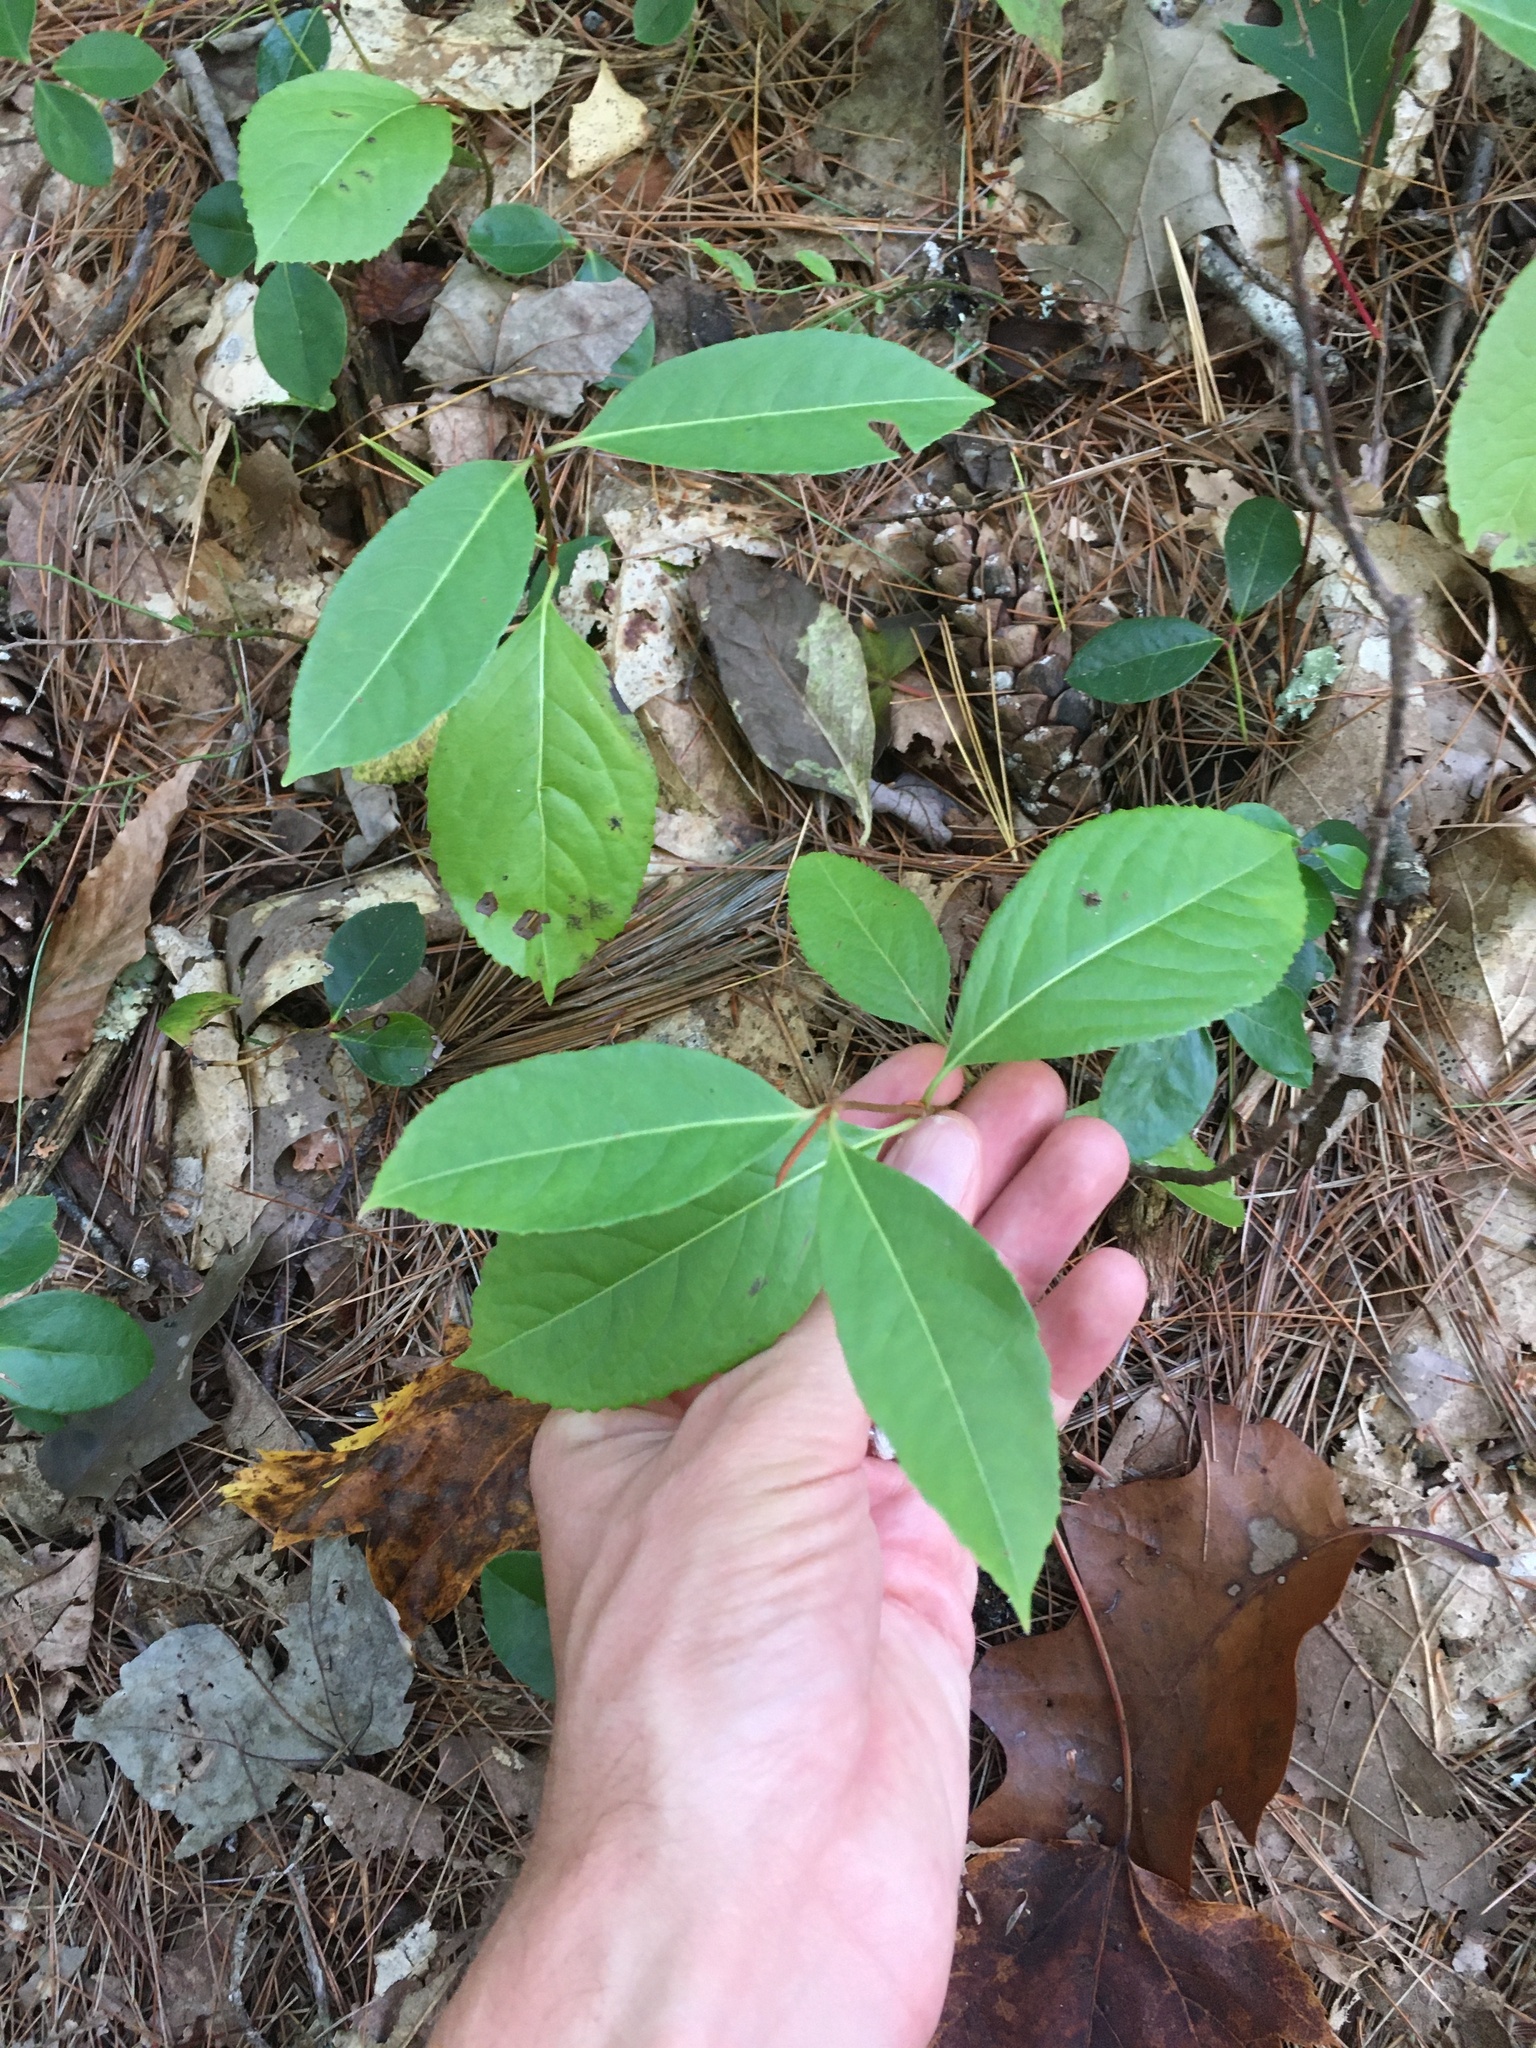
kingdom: Plantae
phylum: Tracheophyta
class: Magnoliopsida
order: Dipsacales
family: Viburnaceae
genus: Viburnum
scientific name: Viburnum cassinoides
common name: Swamp haw
